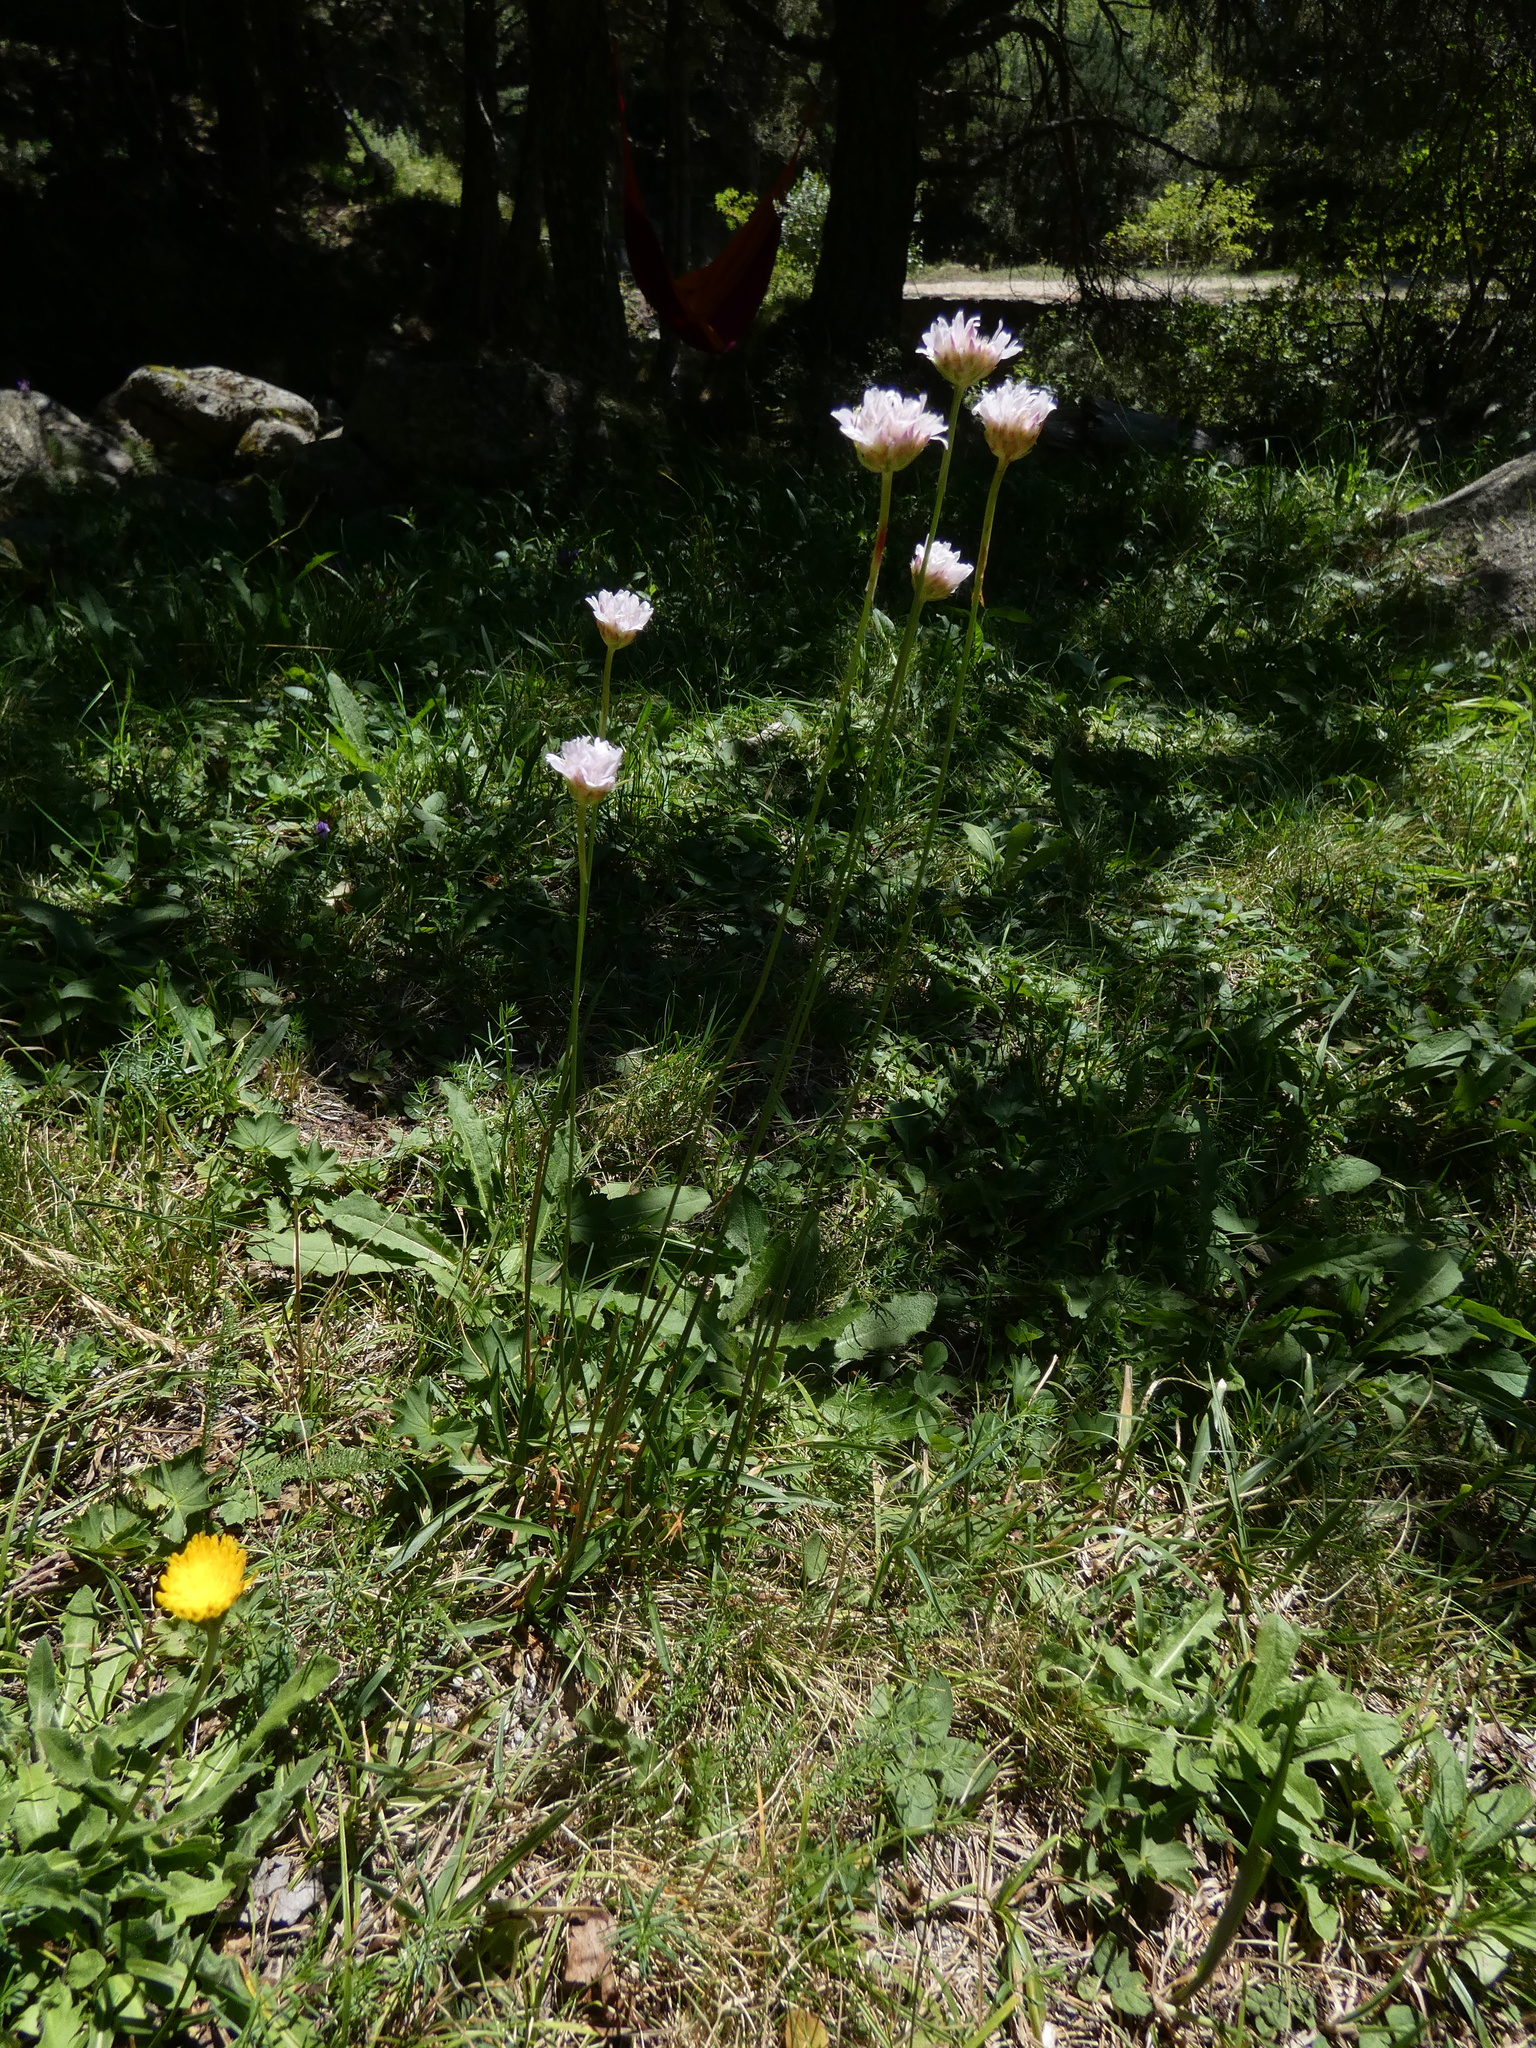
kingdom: Plantae
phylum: Tracheophyta
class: Magnoliopsida
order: Caryophyllales
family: Plumbaginaceae
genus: Armeria
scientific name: Armeria arenaria
